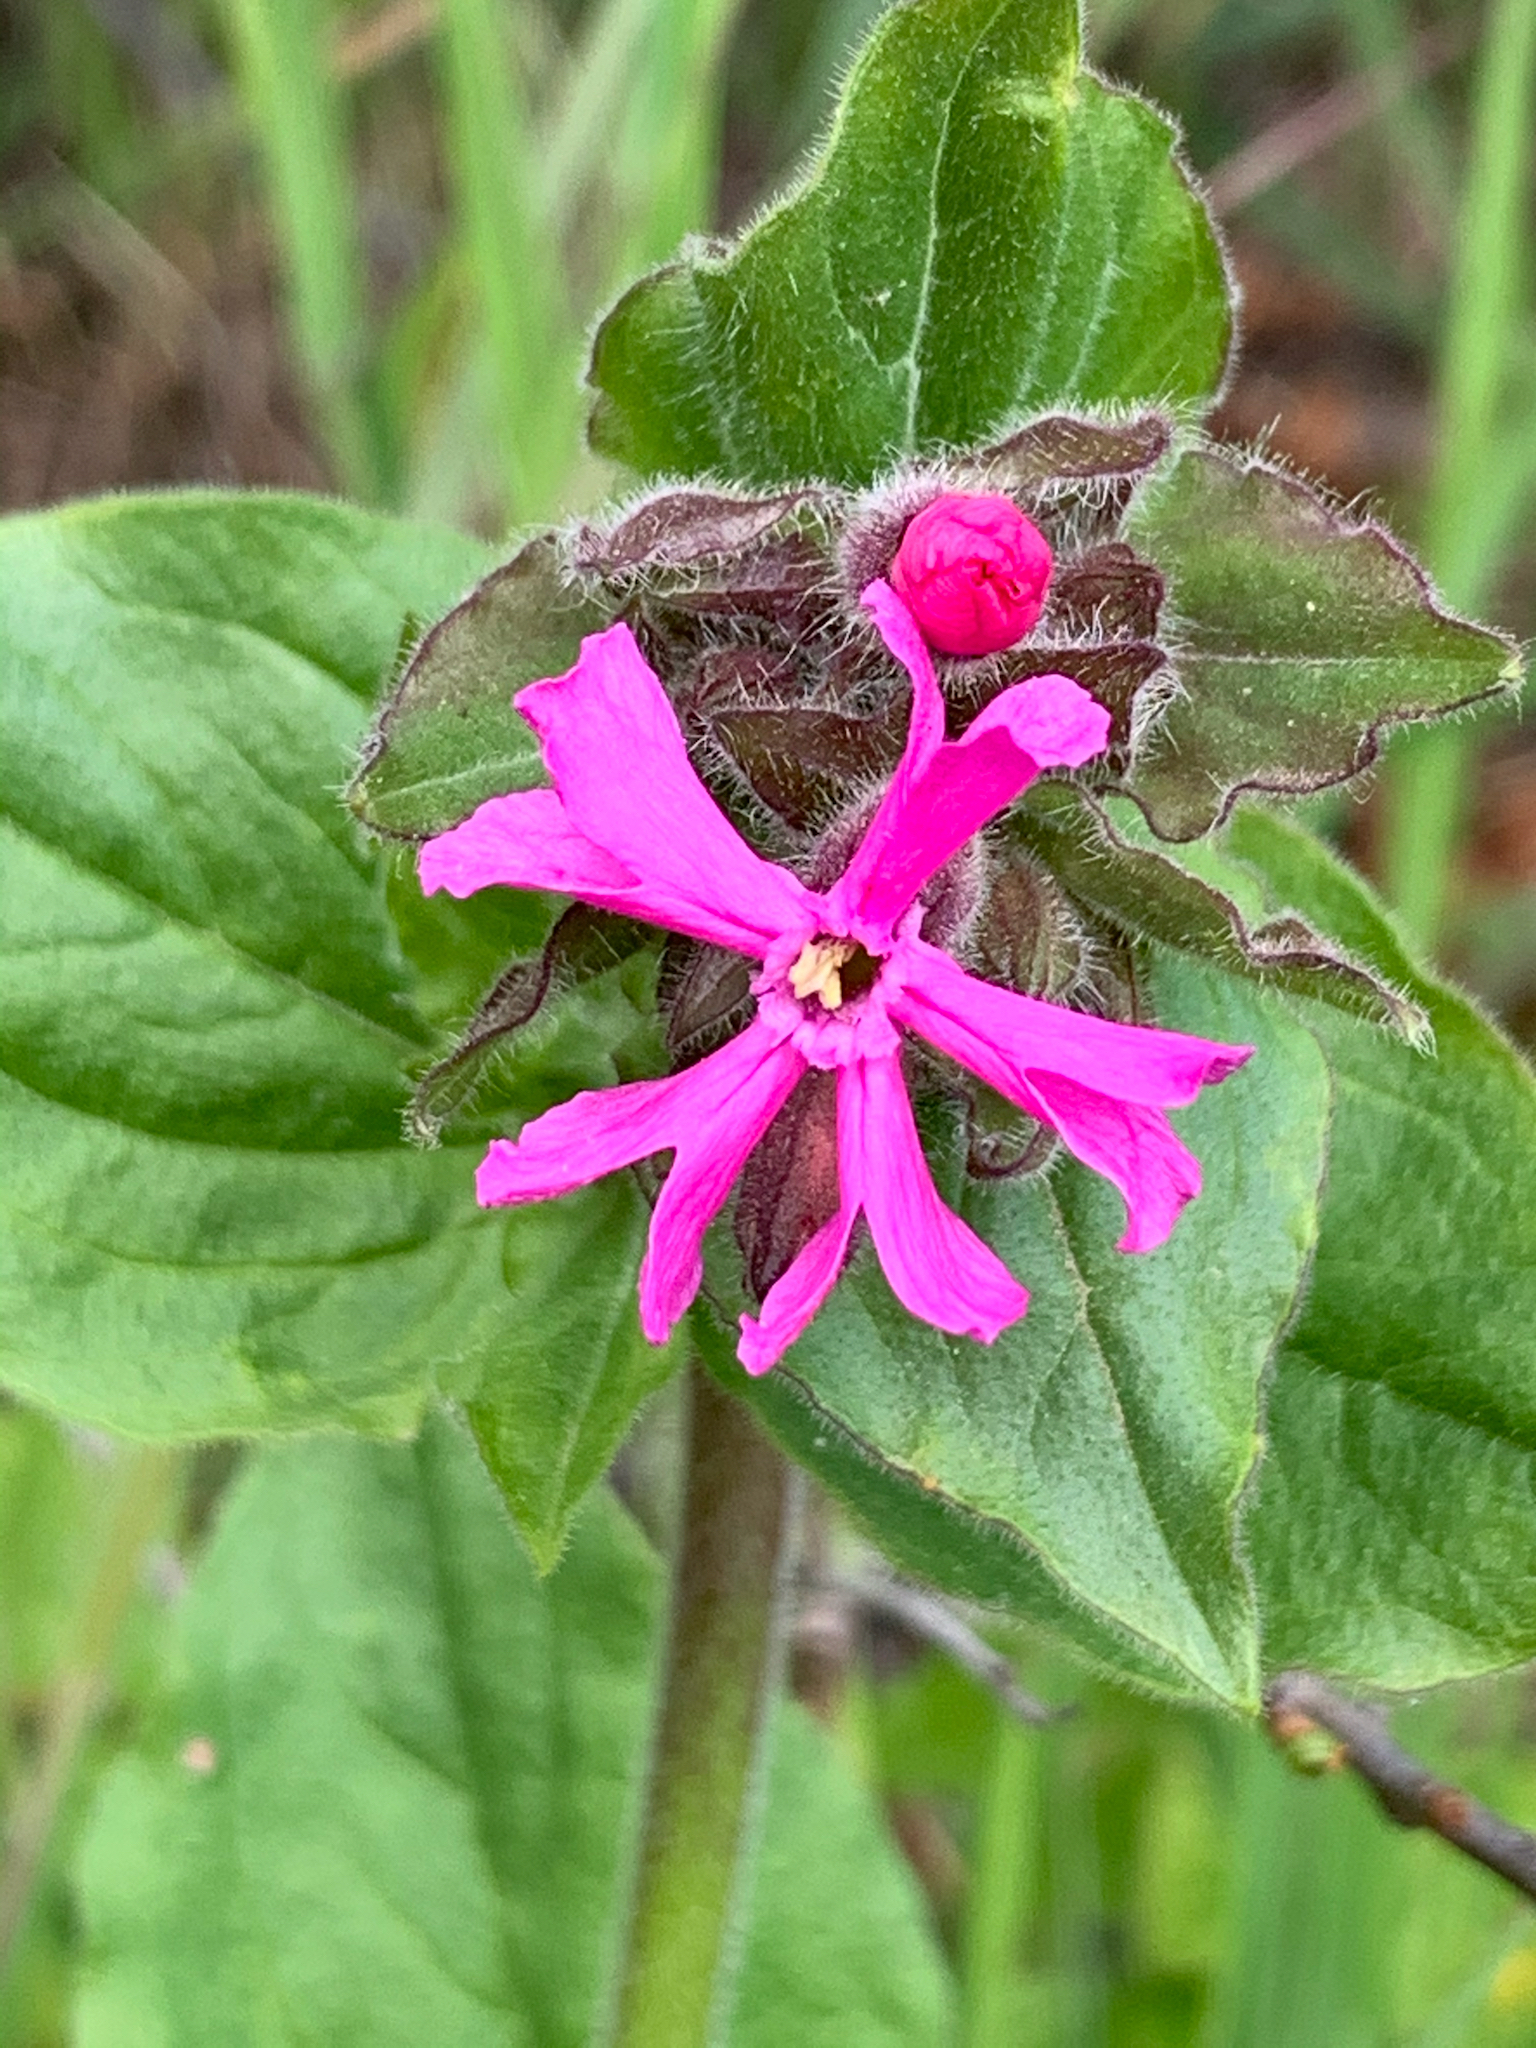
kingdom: Plantae
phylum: Tracheophyta
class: Magnoliopsida
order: Caryophyllales
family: Caryophyllaceae
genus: Silene
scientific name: Silene dioica
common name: Red campion
